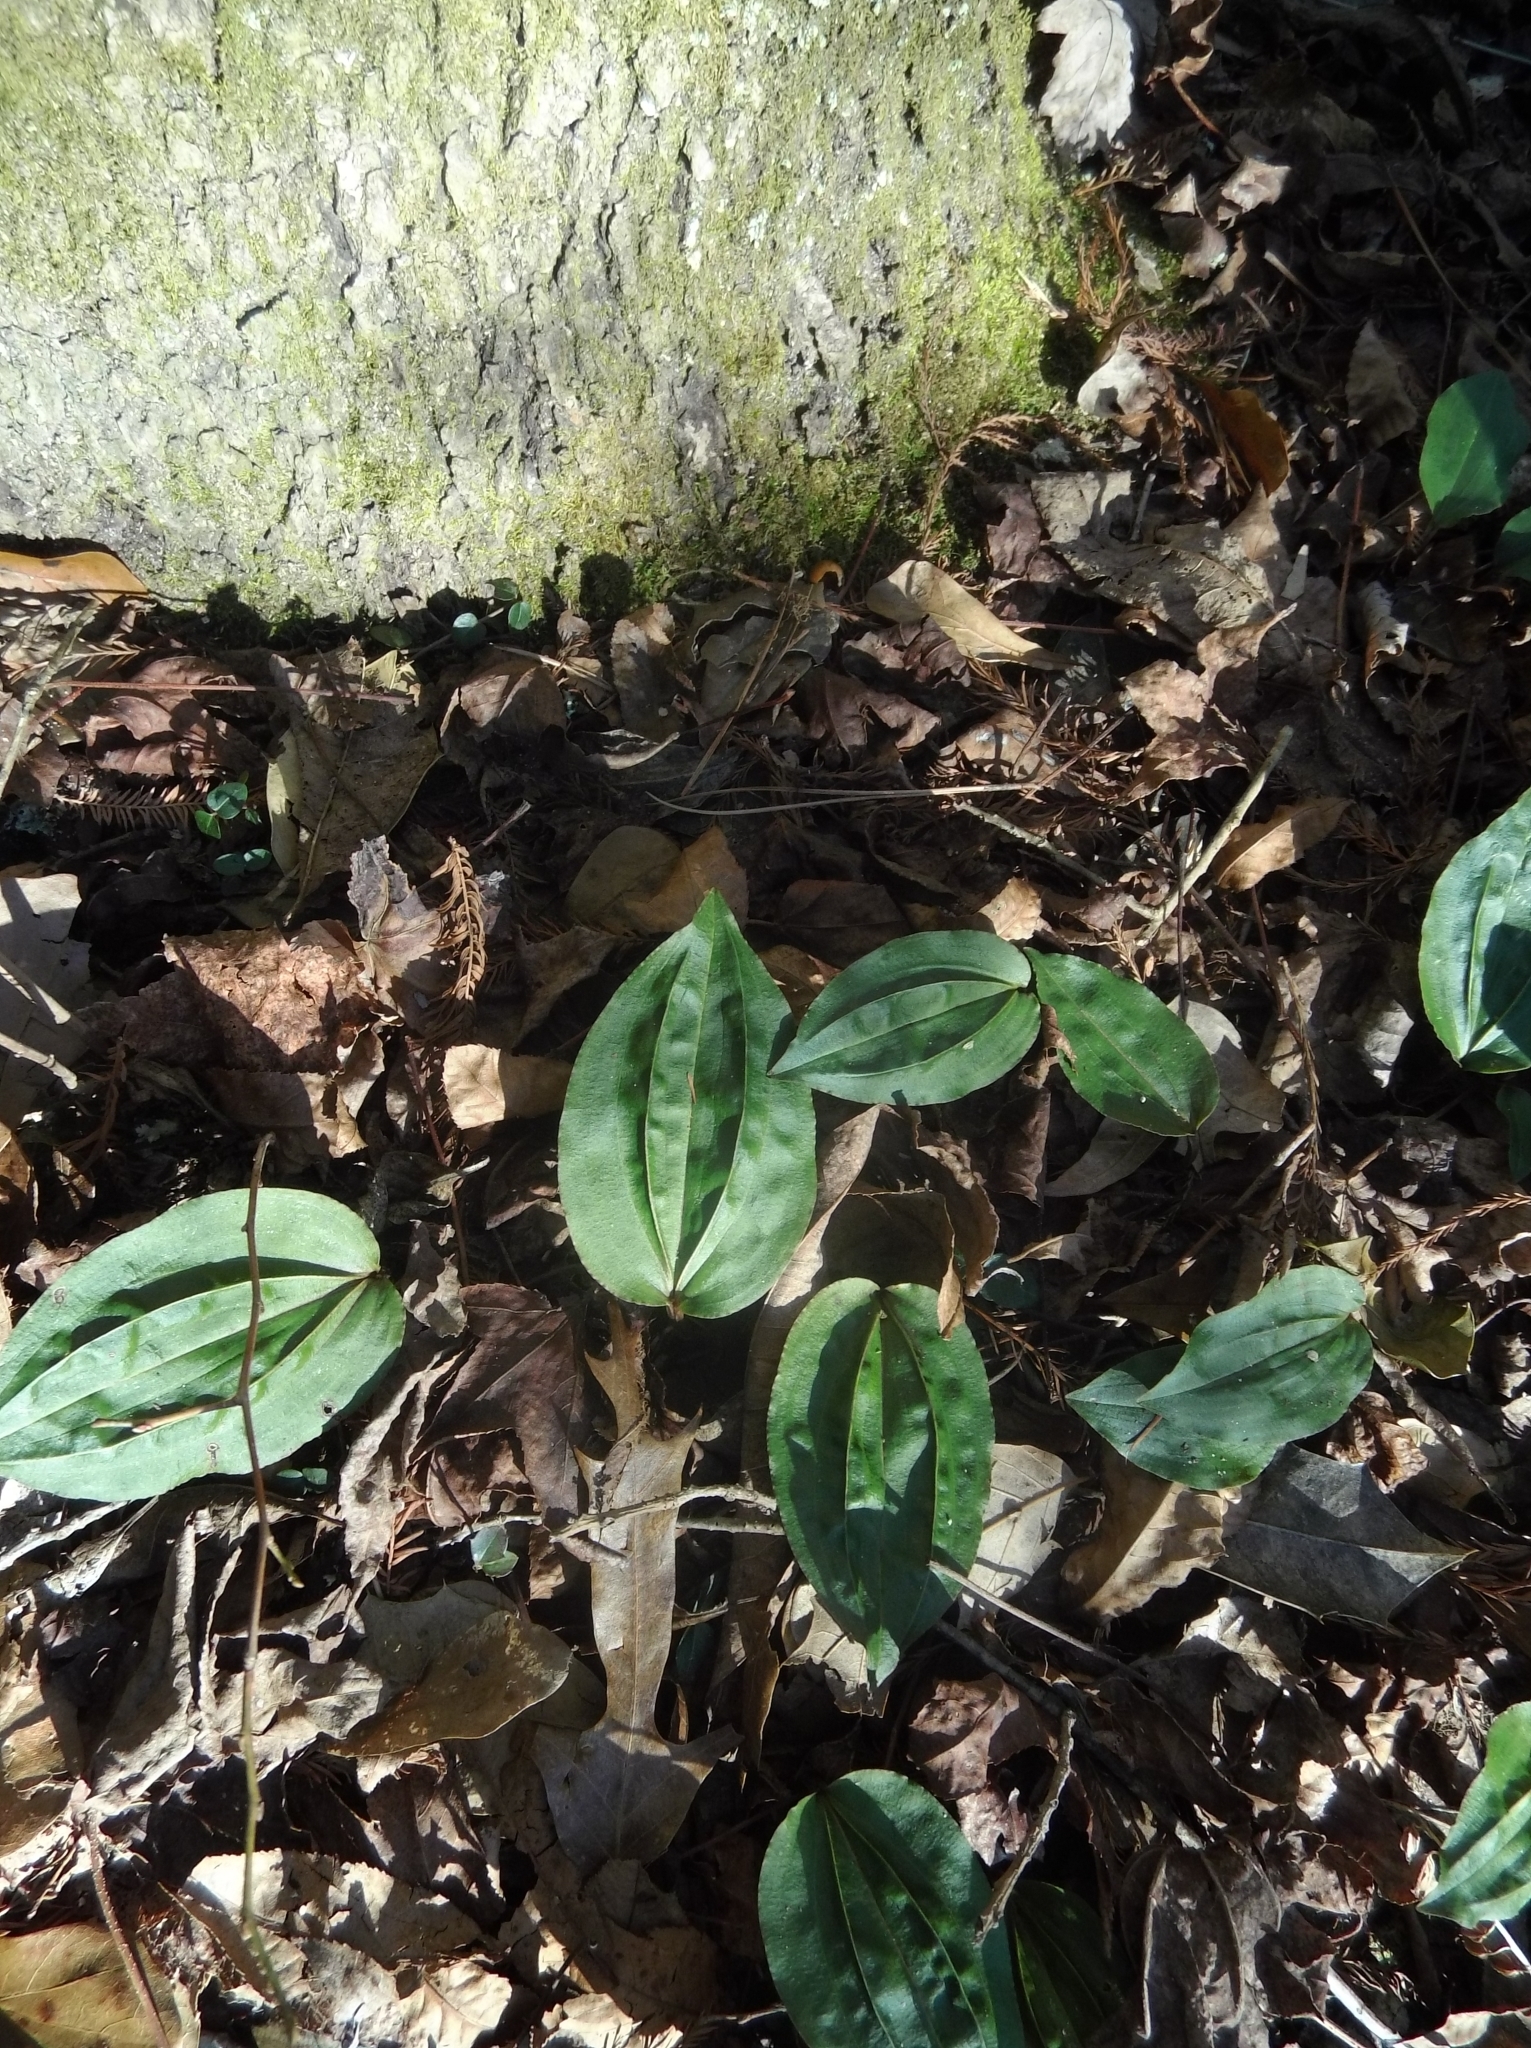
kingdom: Plantae
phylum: Tracheophyta
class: Liliopsida
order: Asparagales
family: Orchidaceae
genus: Tipularia
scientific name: Tipularia discolor
